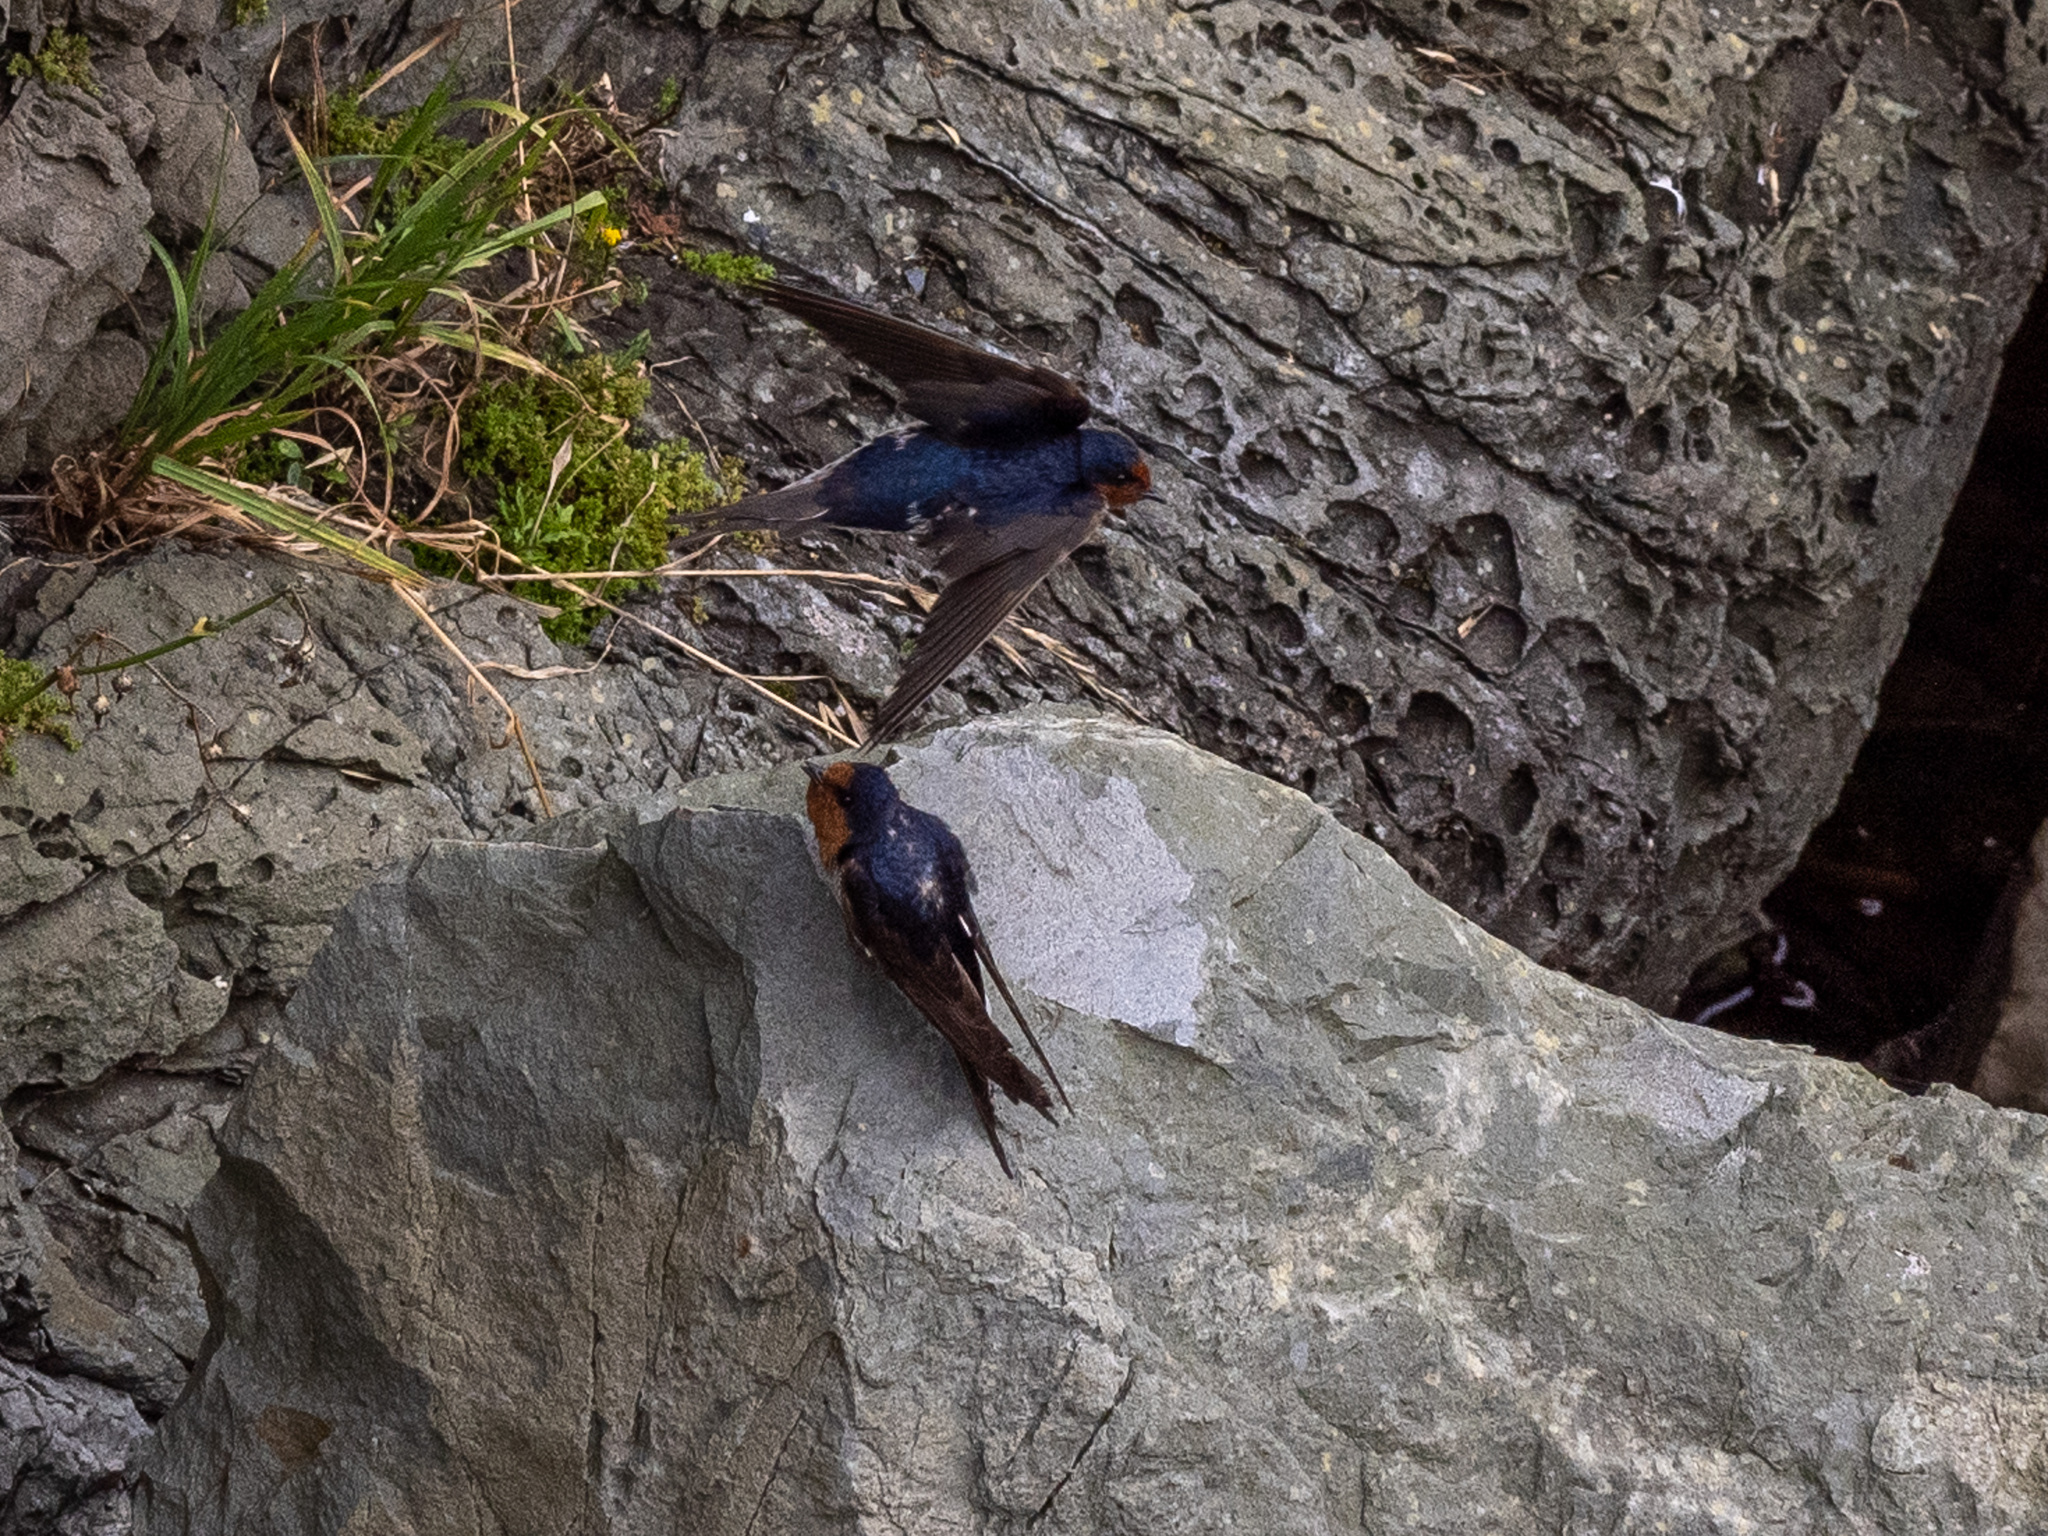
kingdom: Animalia
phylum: Chordata
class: Aves
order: Passeriformes
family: Hirundinidae
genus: Hirundo
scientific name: Hirundo neoxena
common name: Welcome swallow
